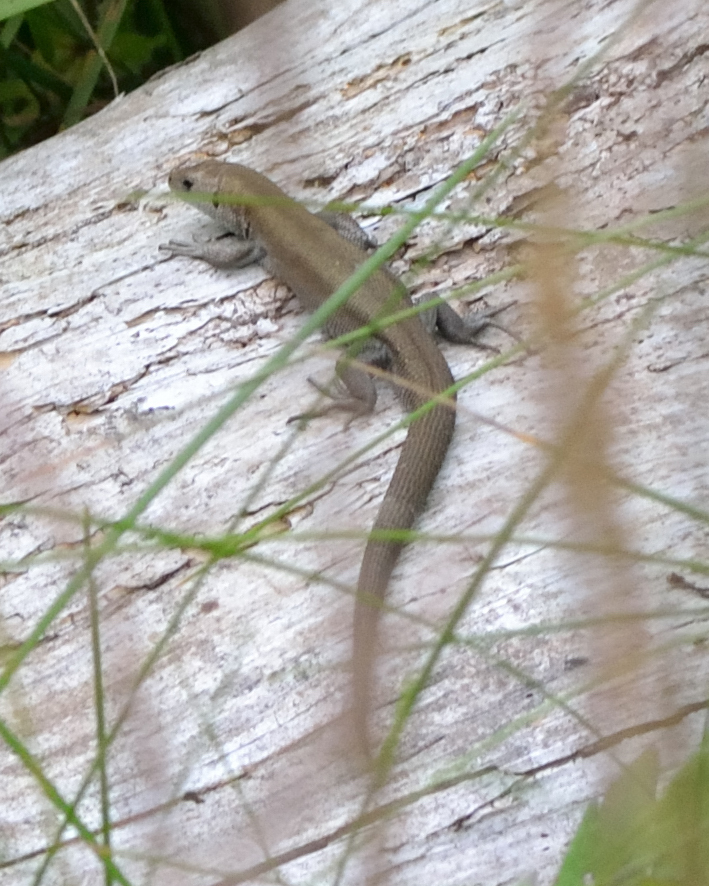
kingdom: Animalia
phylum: Chordata
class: Squamata
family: Lacertidae
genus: Zootoca
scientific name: Zootoca vivipara
